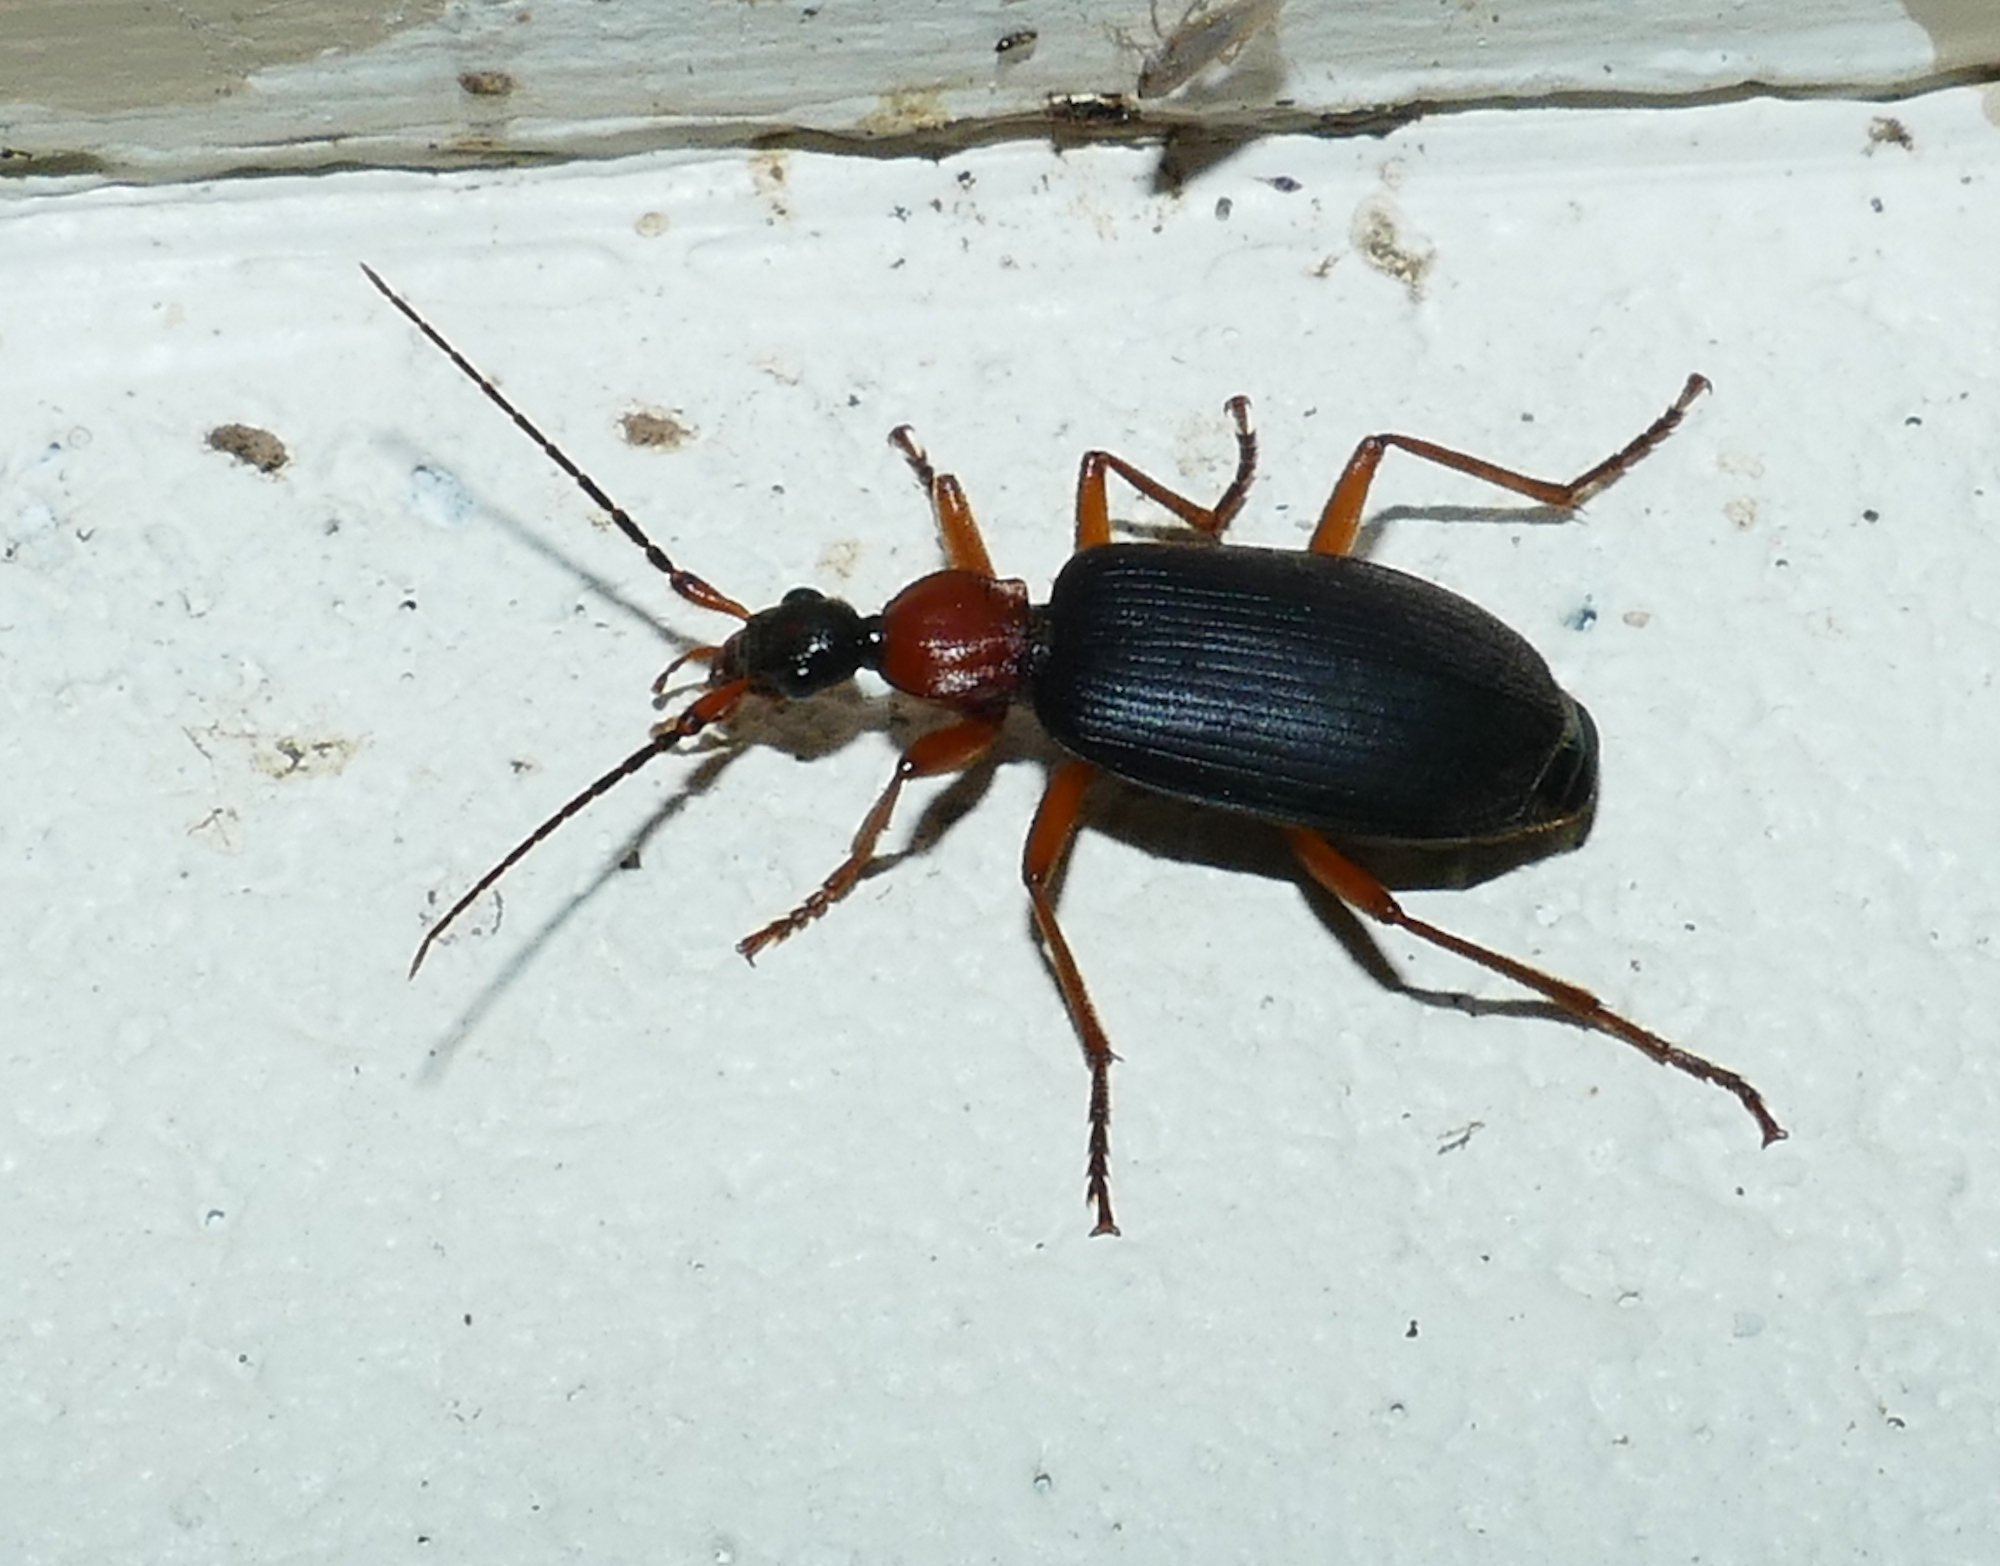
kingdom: Animalia
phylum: Arthropoda
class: Insecta
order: Coleoptera
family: Carabidae
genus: Galerita
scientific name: Galerita bicolor
